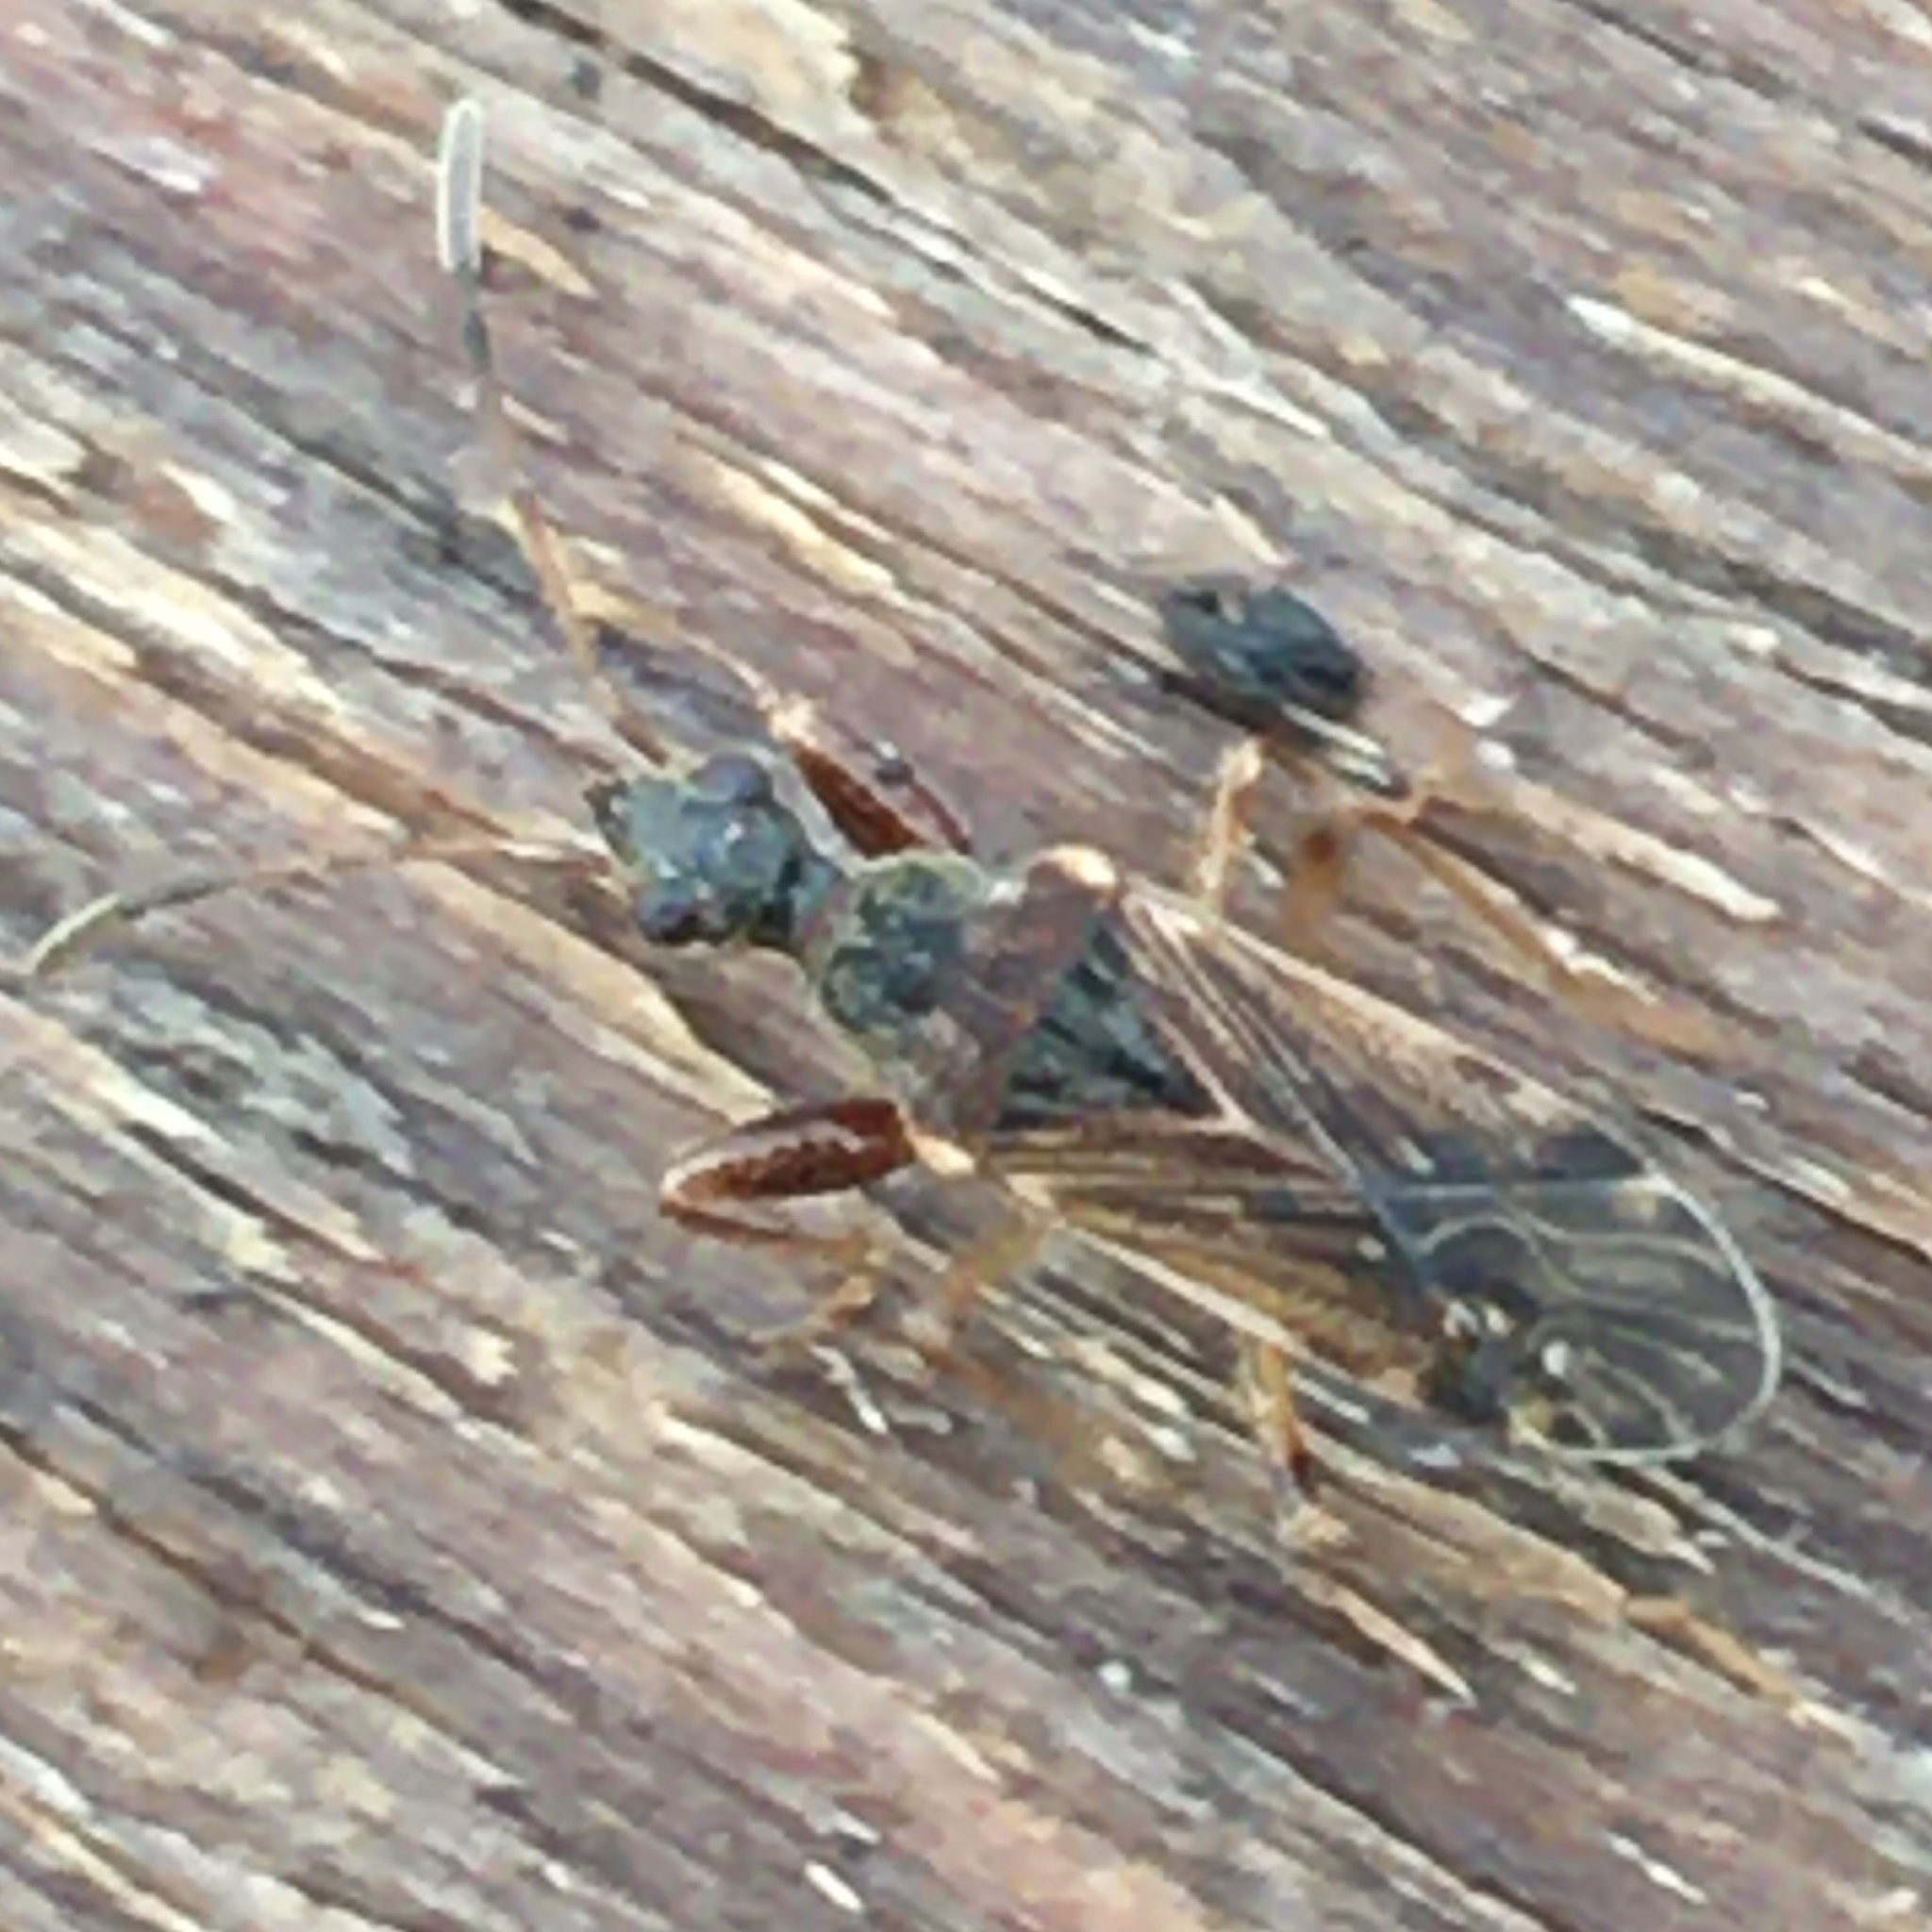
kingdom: Animalia
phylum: Arthropoda
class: Insecta
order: Hemiptera
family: Rhyparochromidae
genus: Heraeus
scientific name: Heraeus plebejus
